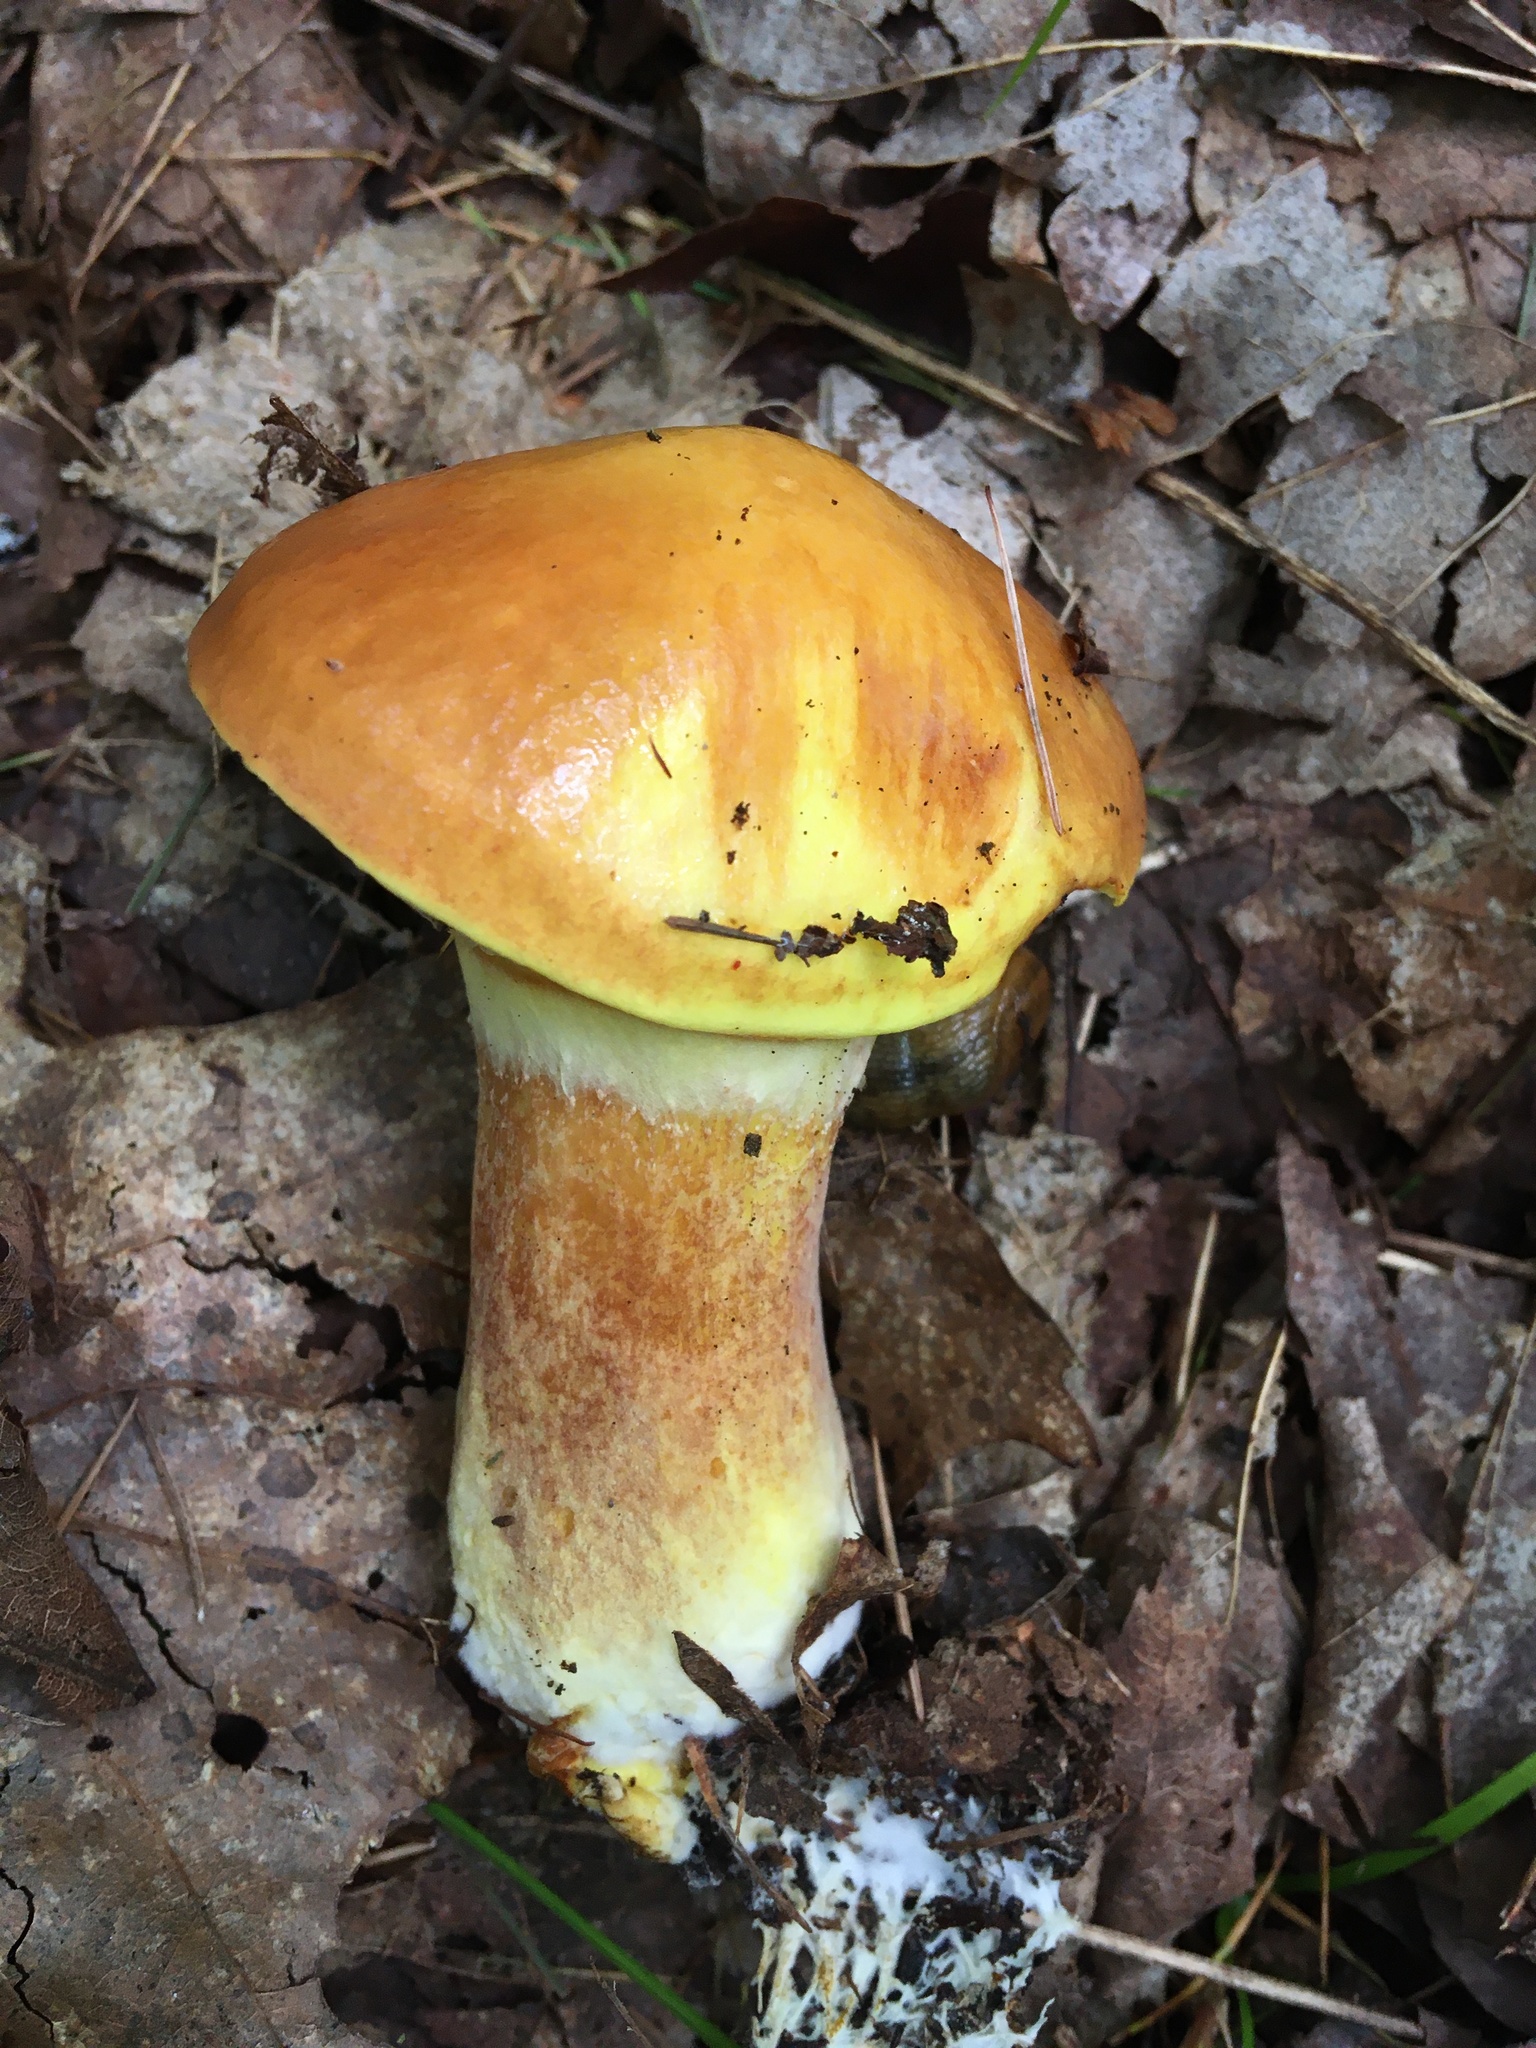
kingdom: Fungi
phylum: Basidiomycota
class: Agaricomycetes
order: Boletales
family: Suillaceae
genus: Suillus
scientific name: Suillus grevillei
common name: Larch bolete
